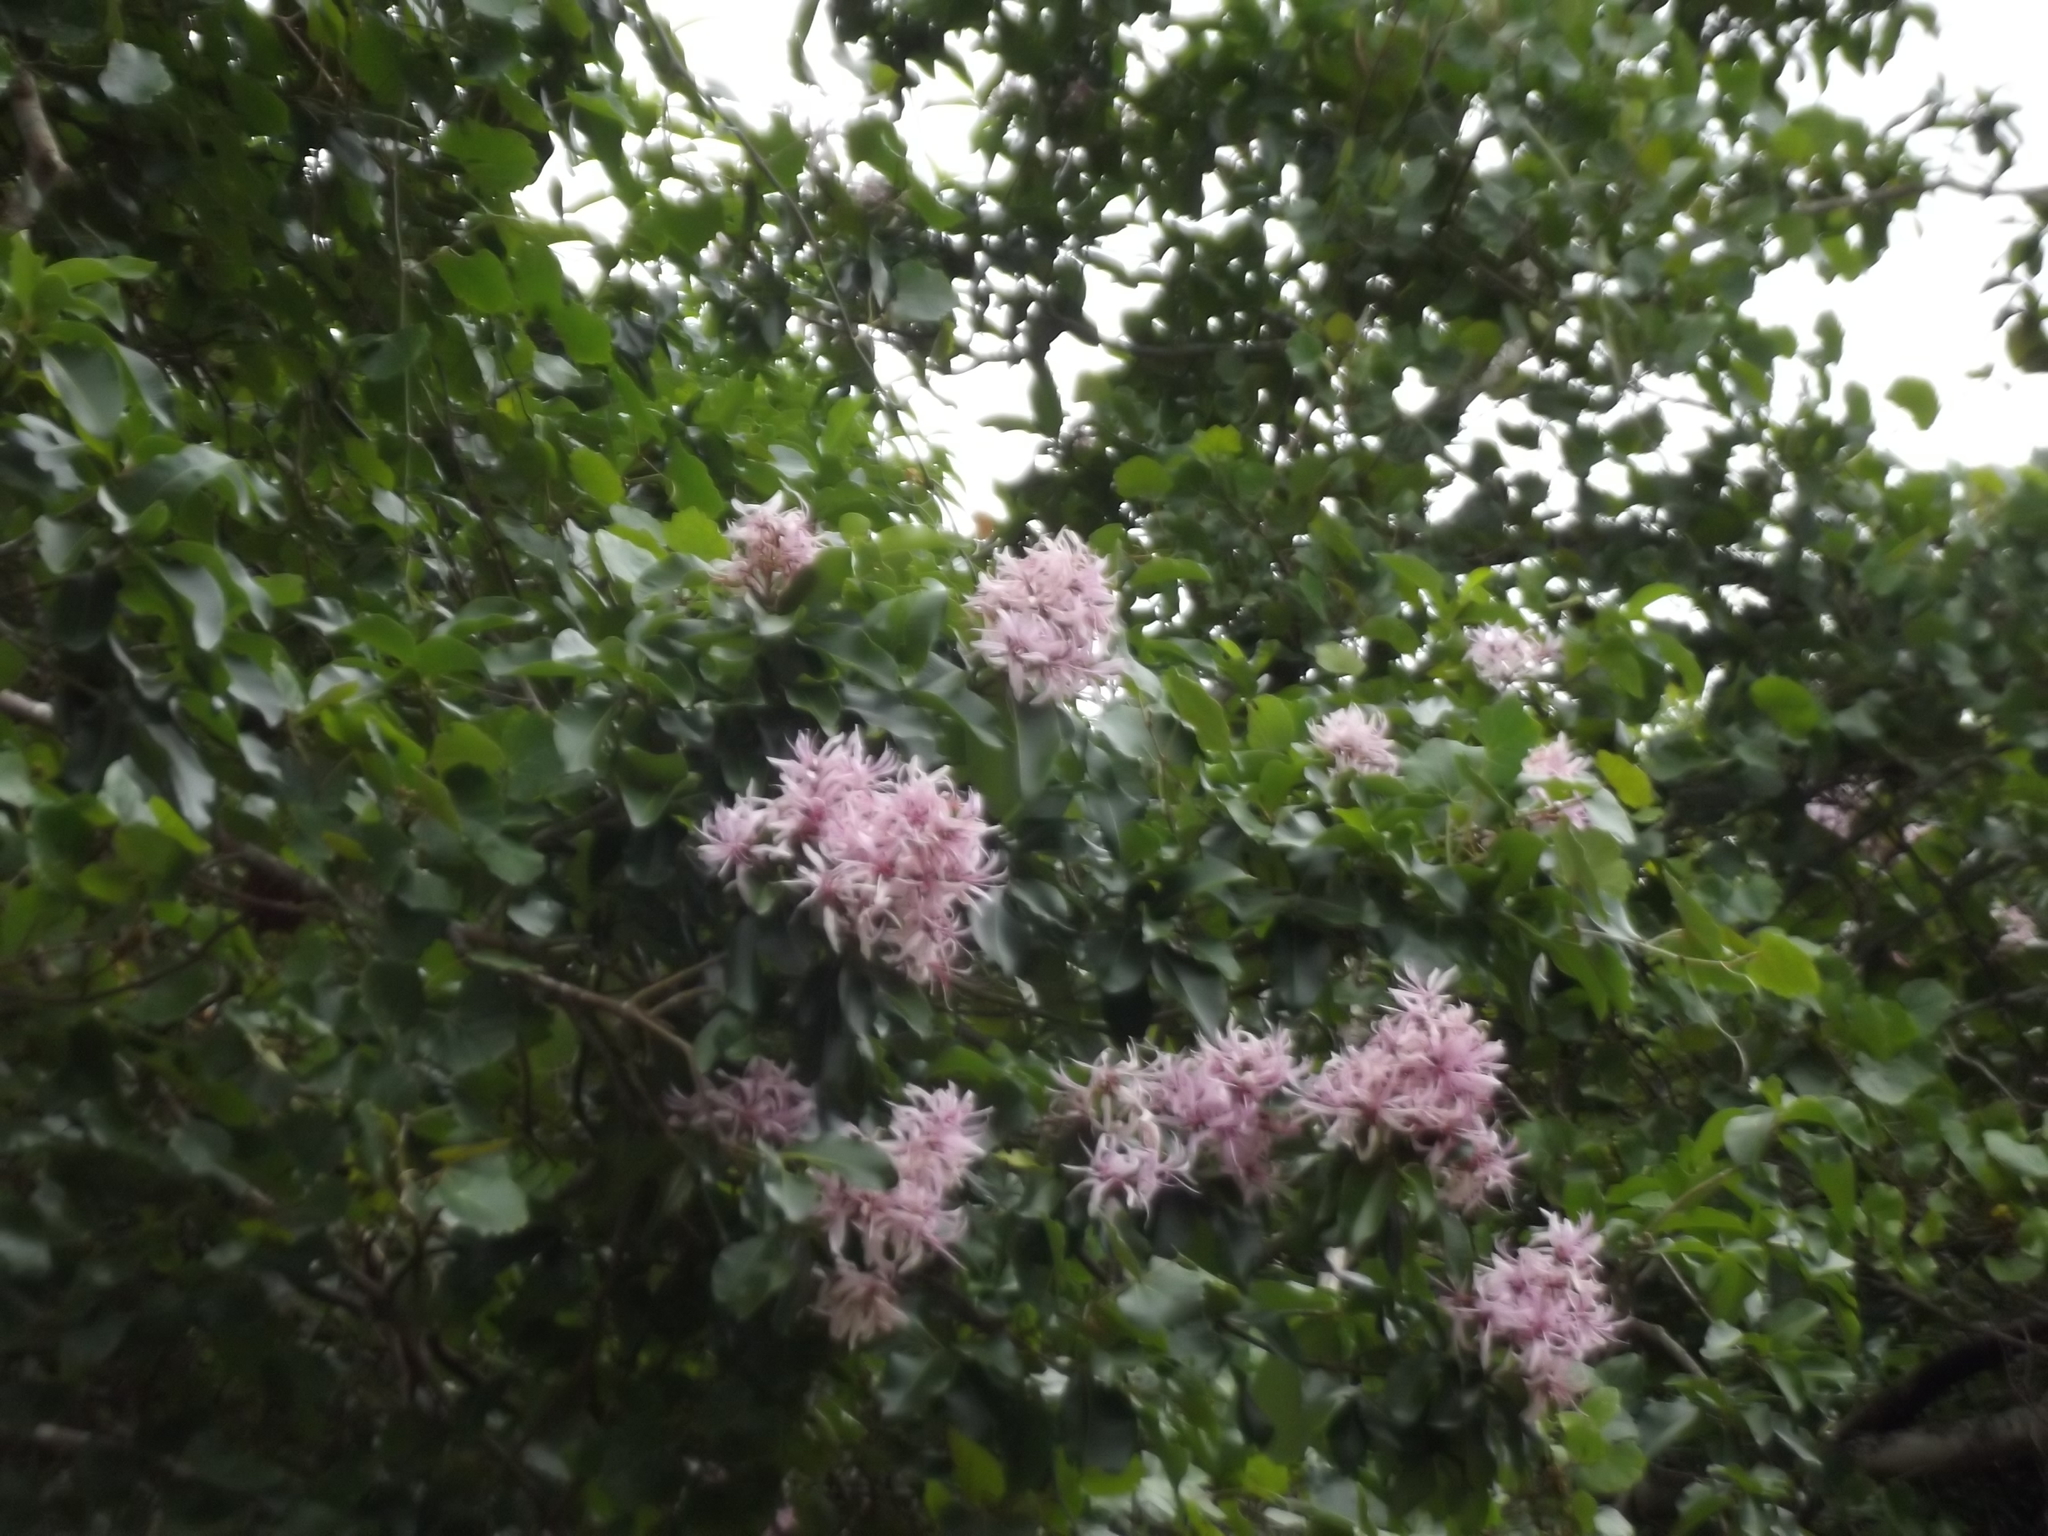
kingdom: Plantae
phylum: Tracheophyta
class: Magnoliopsida
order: Sapindales
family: Rutaceae
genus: Calodendrum
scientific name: Calodendrum capense
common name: Cape chestnut
